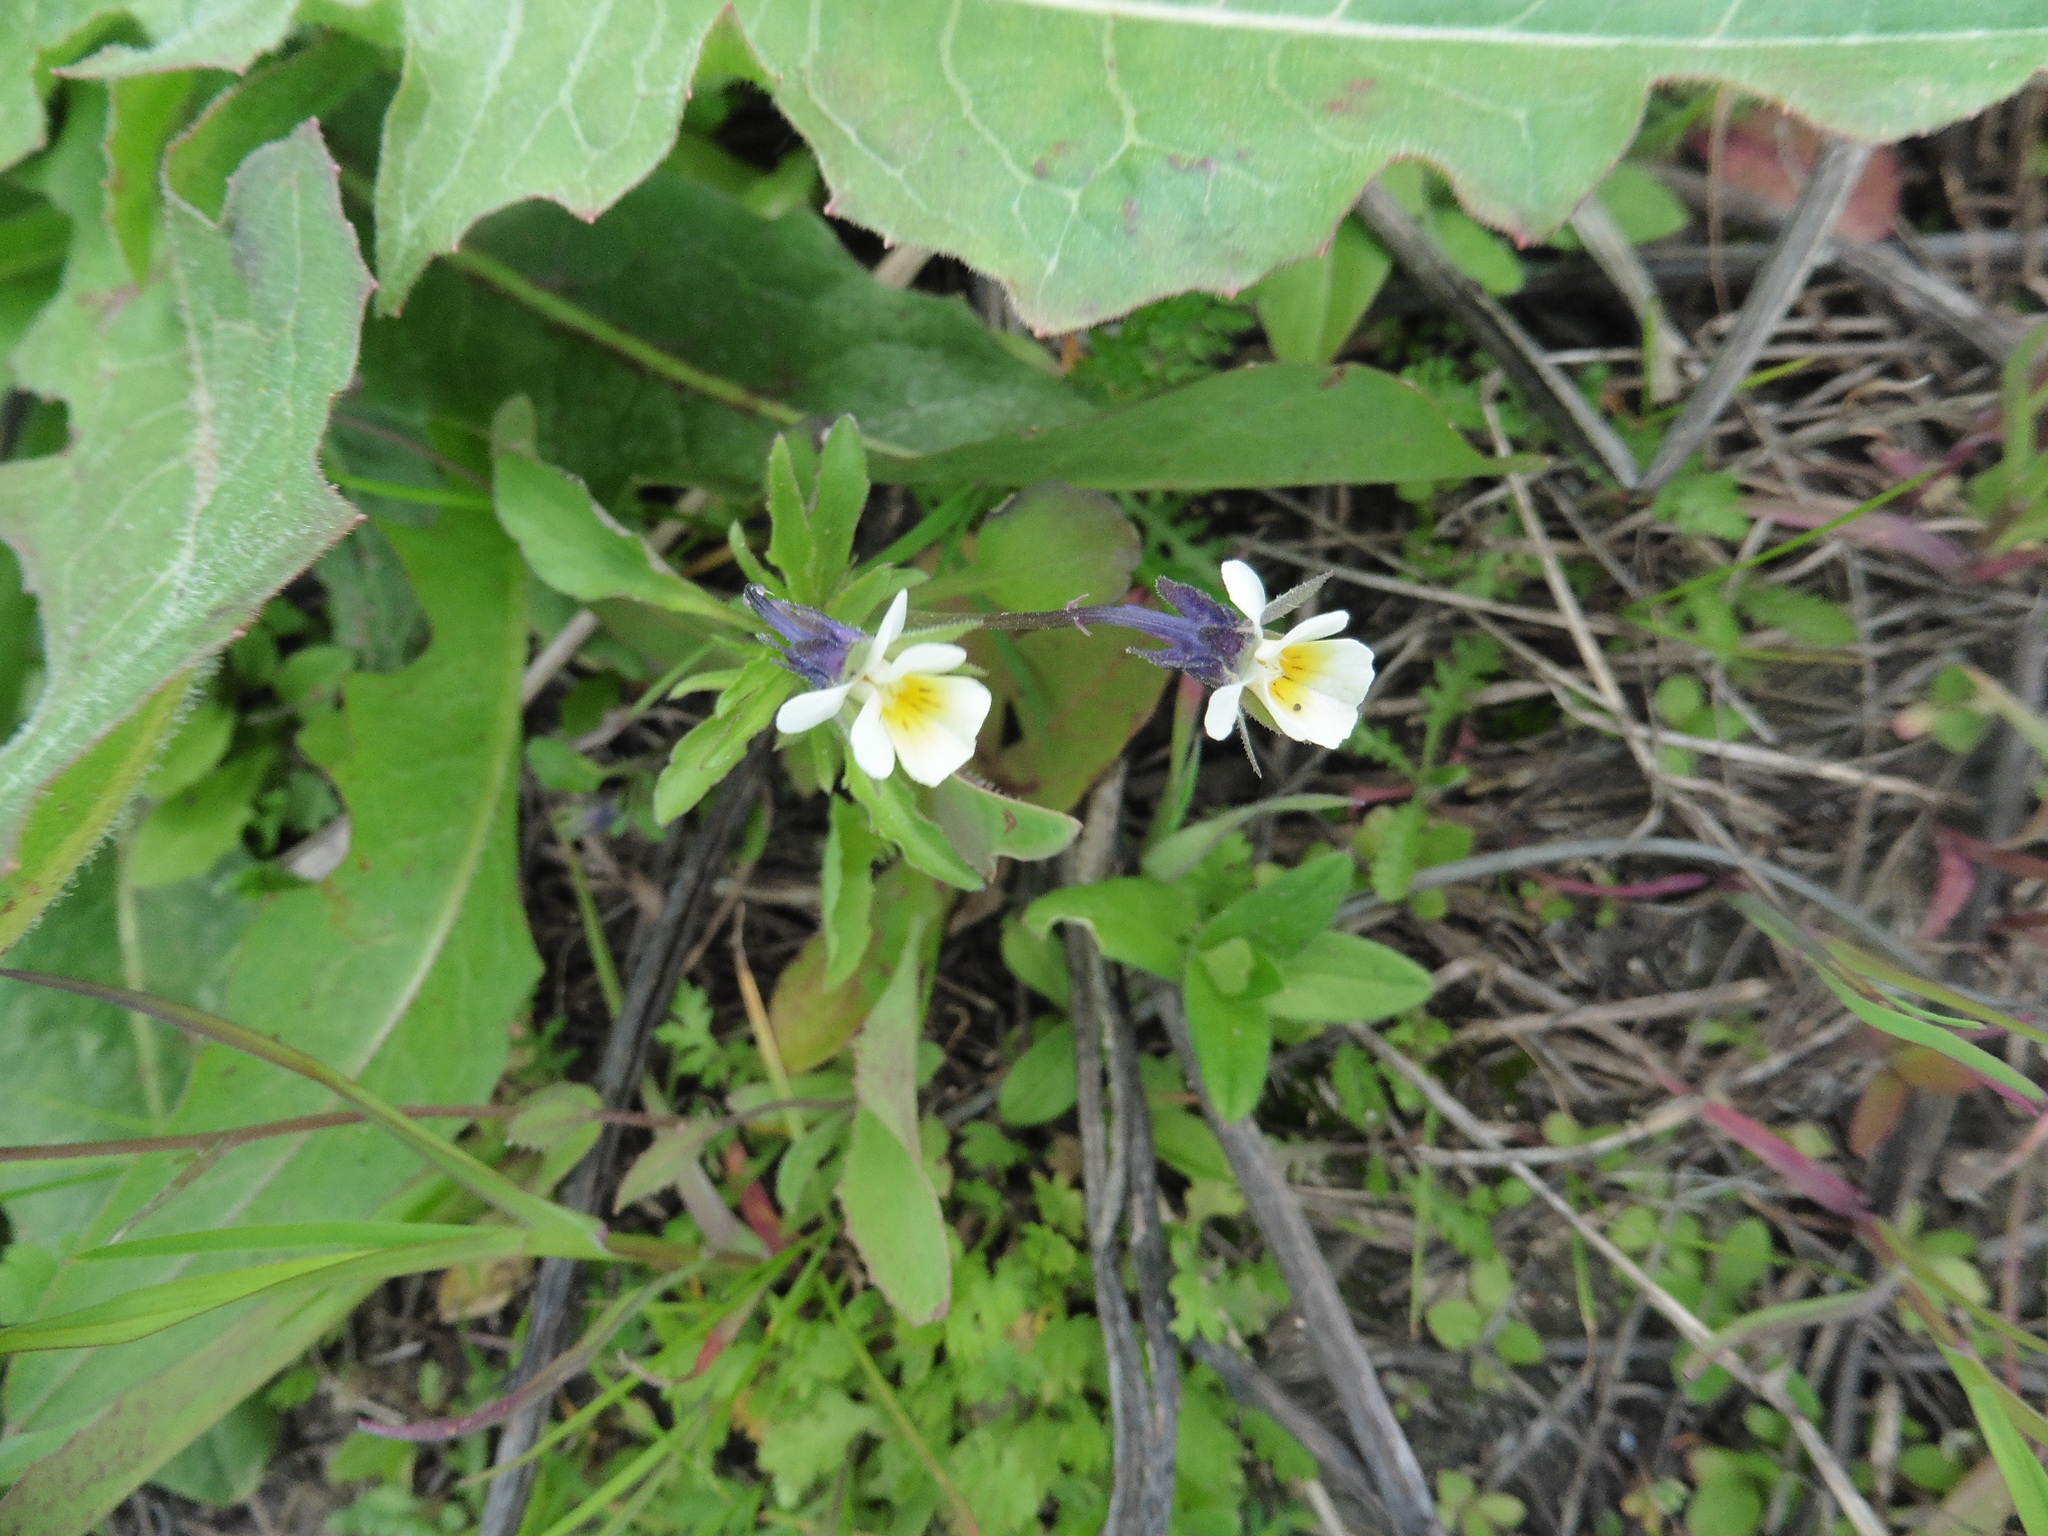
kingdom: Plantae
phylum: Tracheophyta
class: Magnoliopsida
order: Malpighiales
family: Violaceae
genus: Viola
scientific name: Viola arvensis
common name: Field pansy
